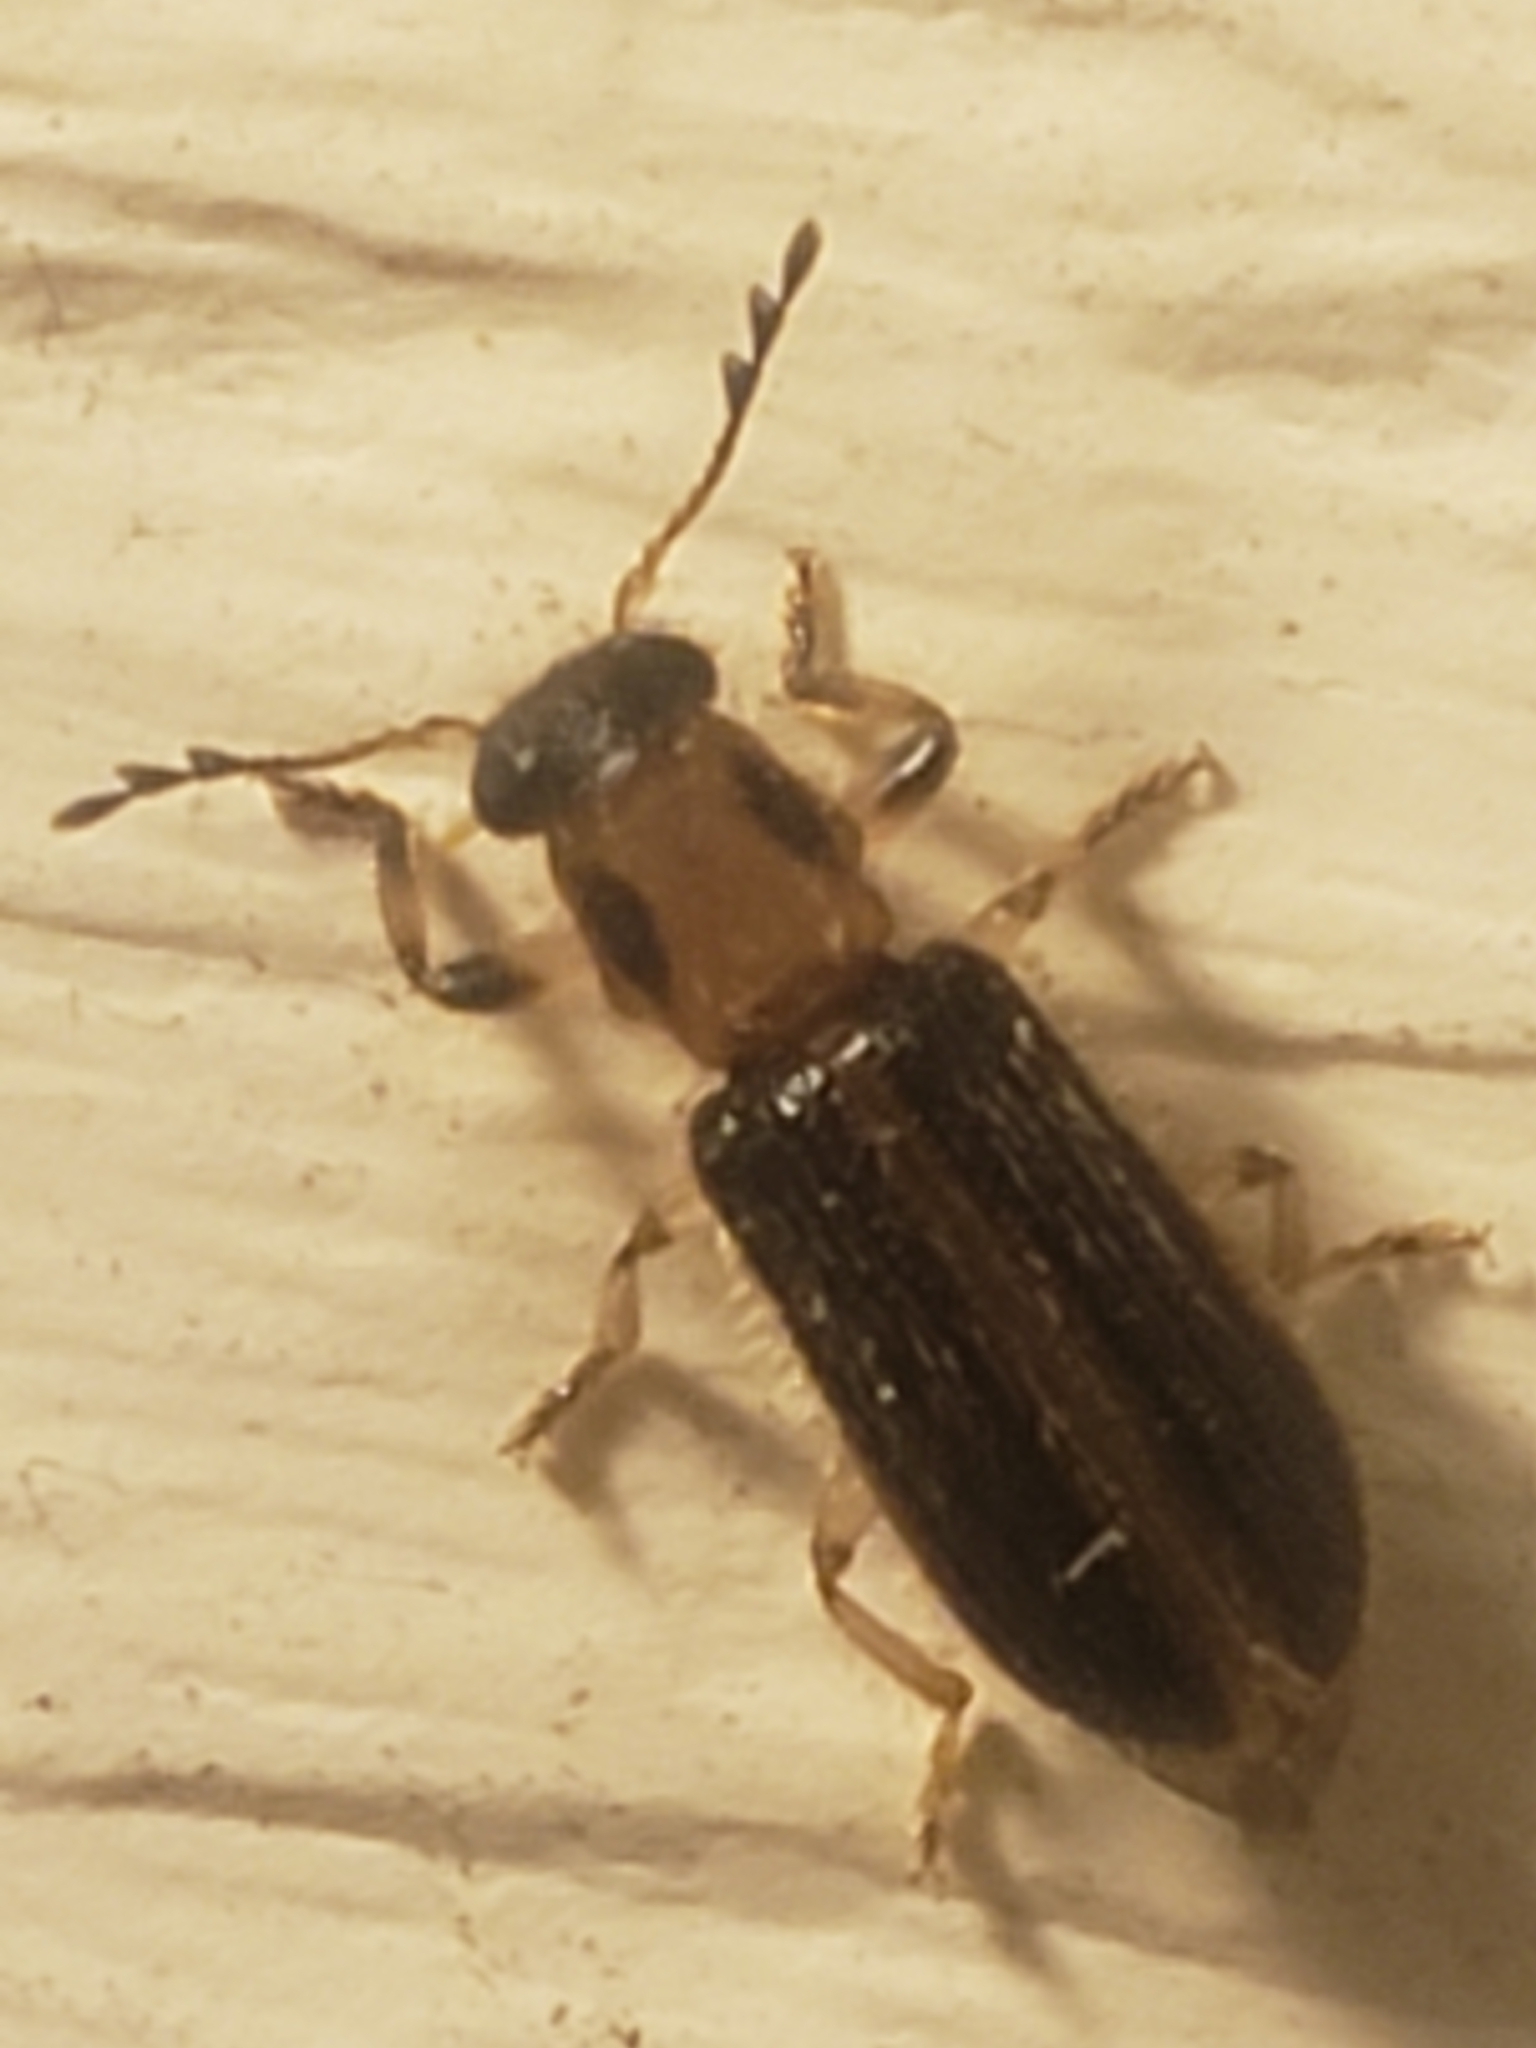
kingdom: Animalia
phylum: Arthropoda
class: Insecta
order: Coleoptera
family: Cleridae
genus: Cregya
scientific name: Cregya oculata
